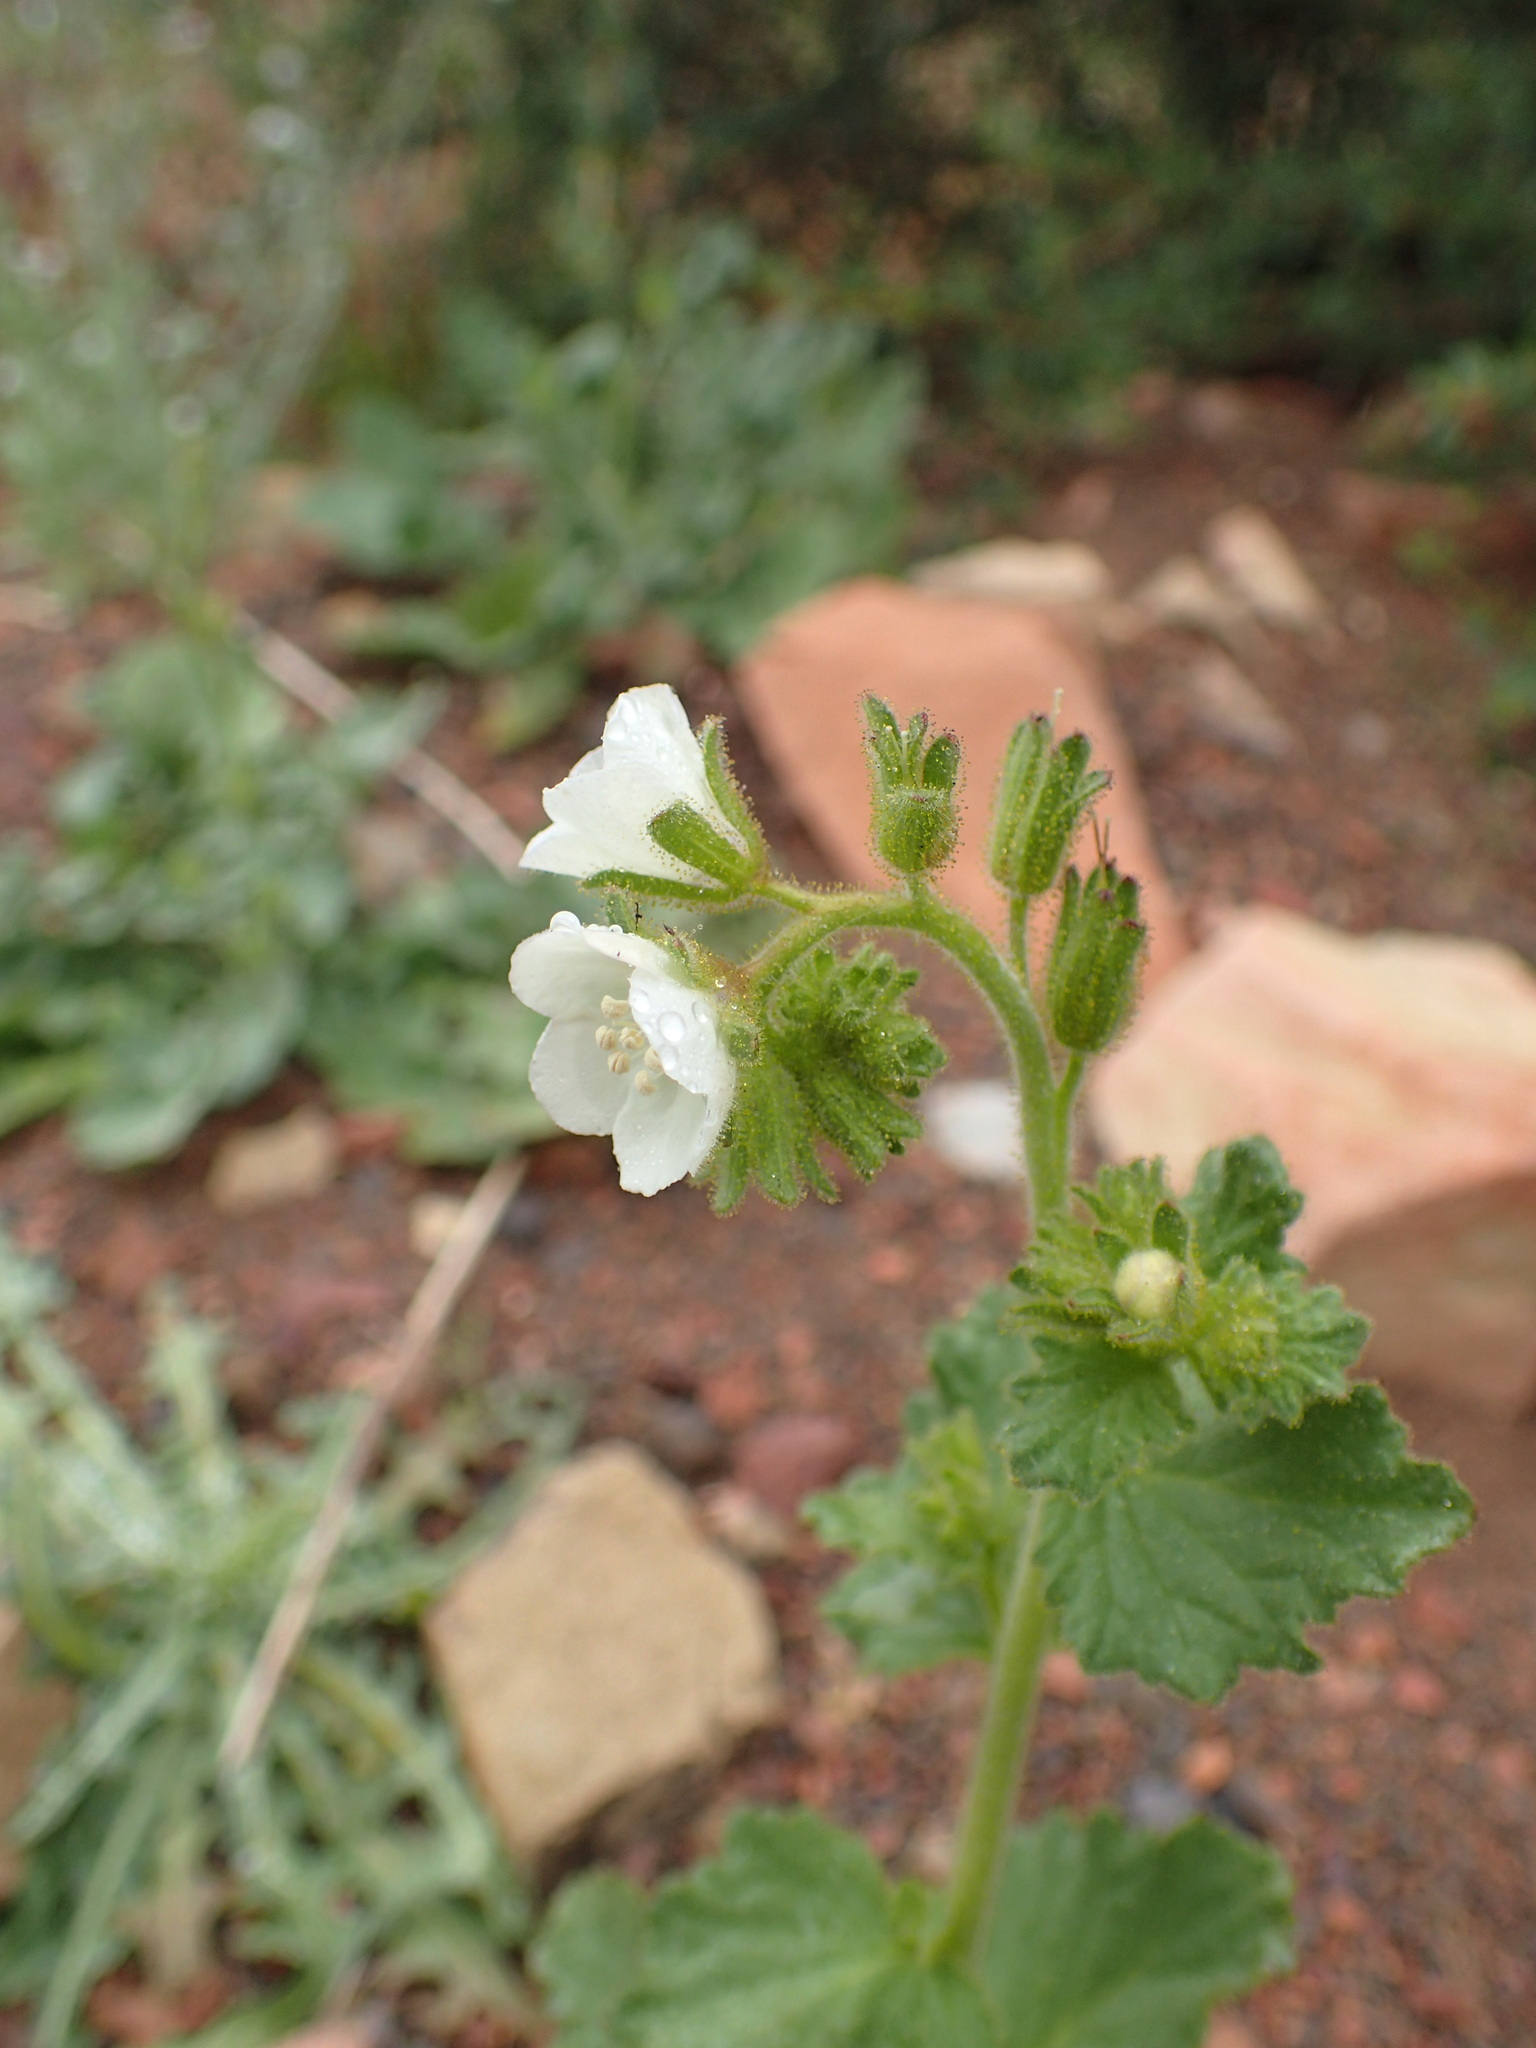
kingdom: Plantae
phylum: Tracheophyta
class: Magnoliopsida
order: Boraginales
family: Hydrophyllaceae
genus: Phacelia
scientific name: Phacelia viscida
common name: Sticky phacelia
